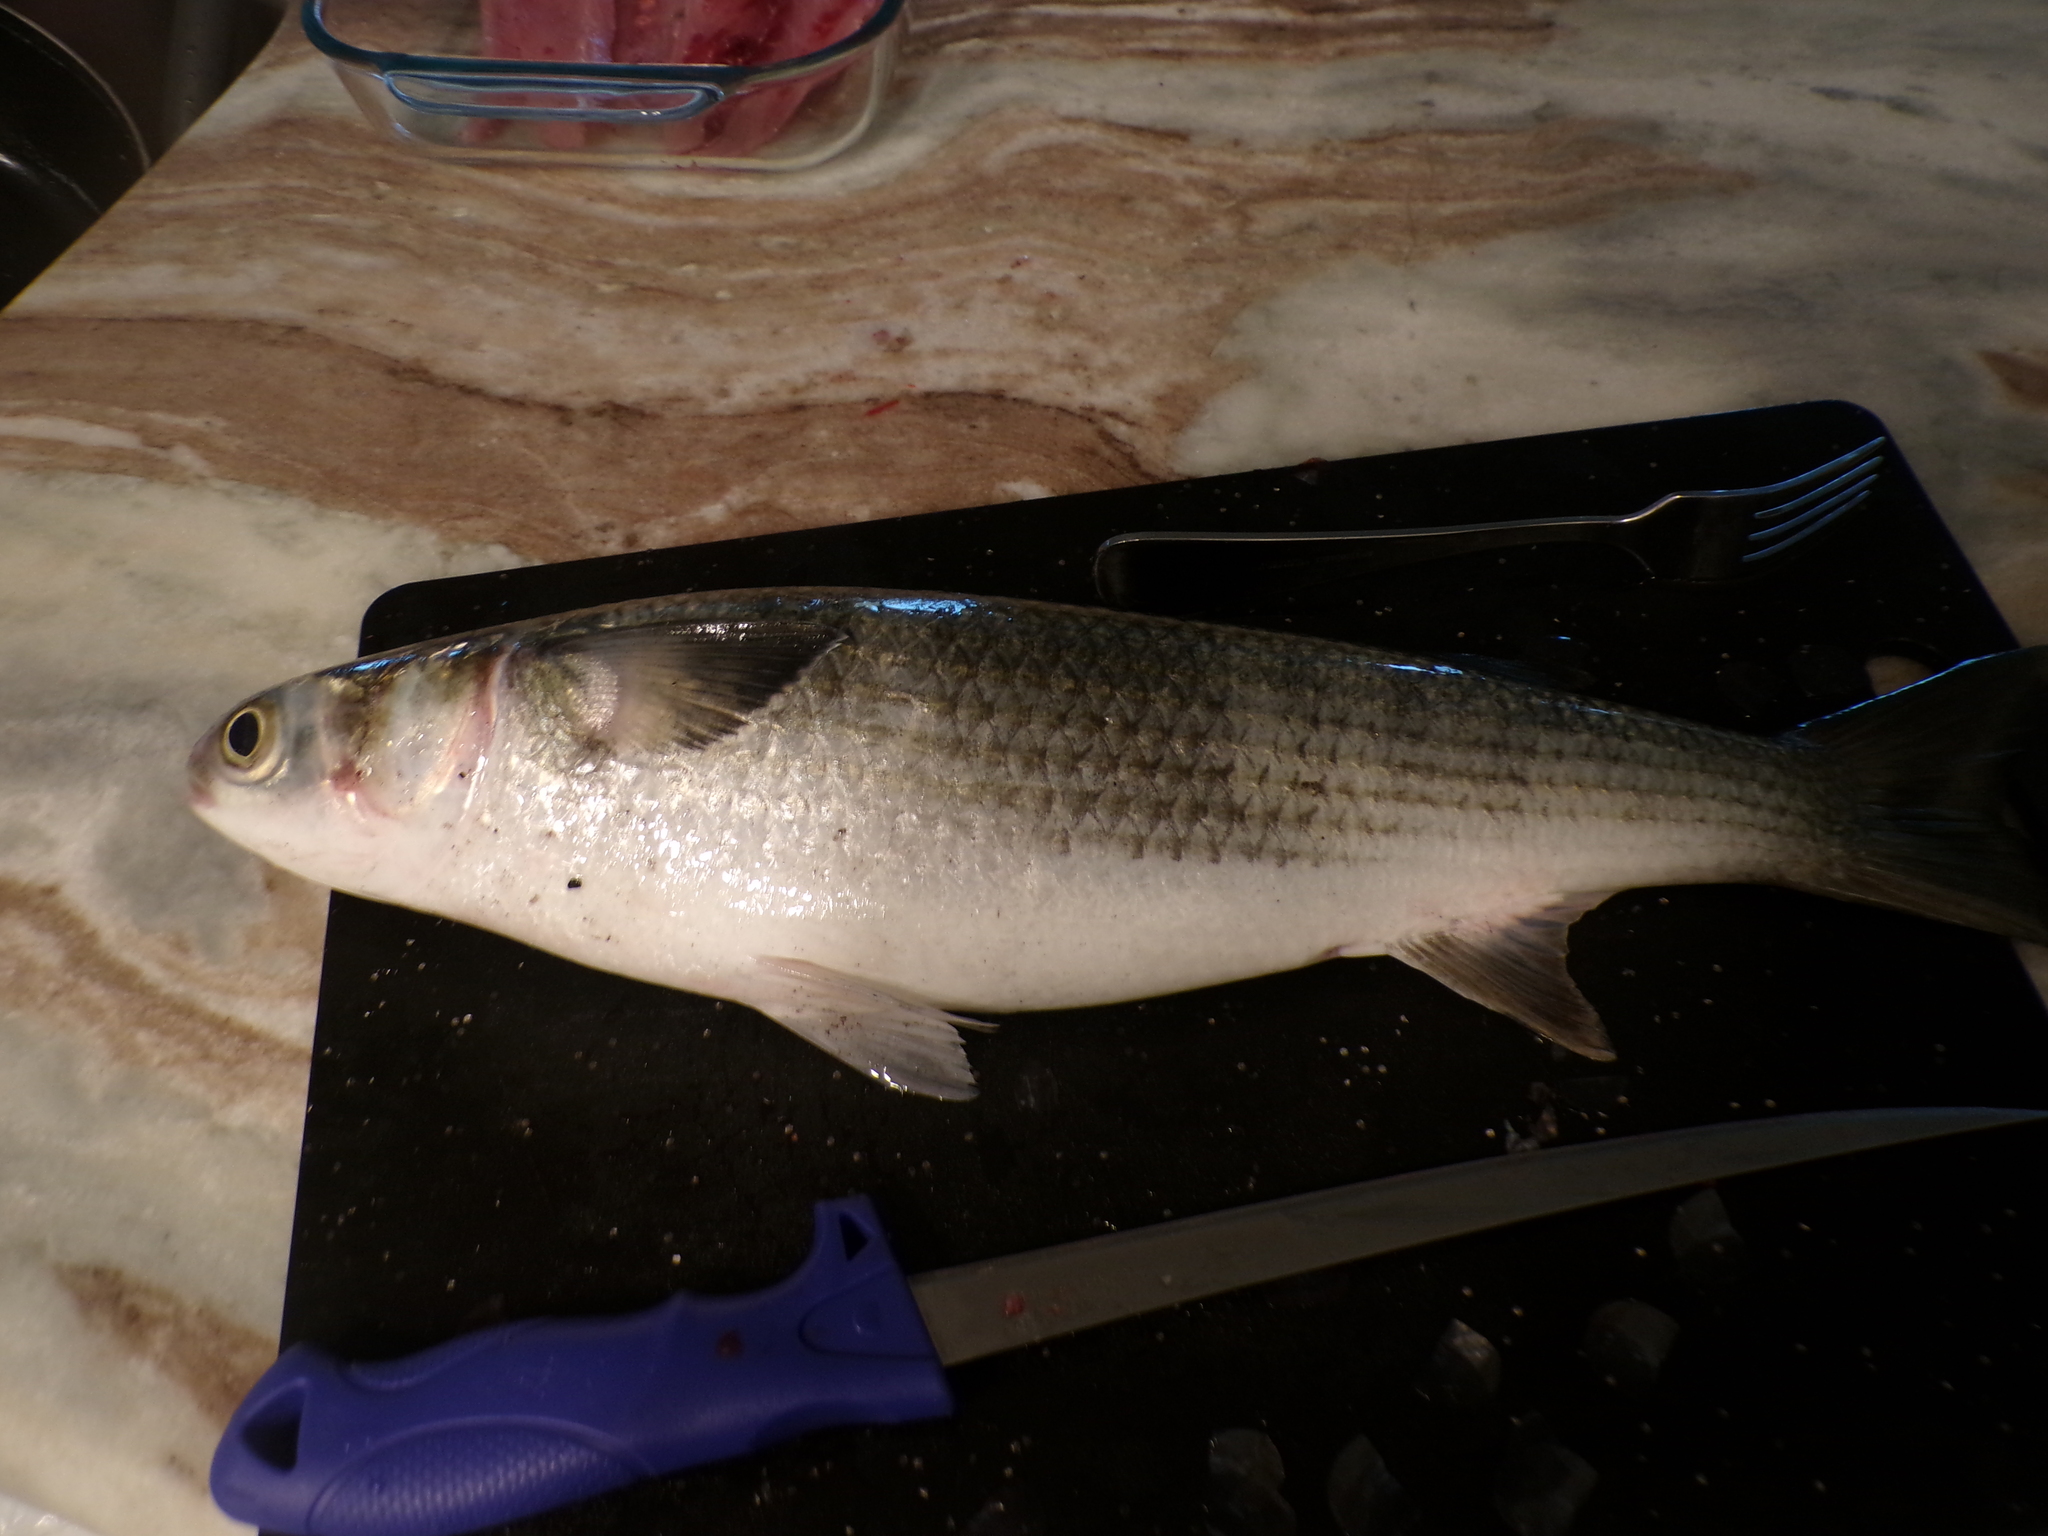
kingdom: Animalia
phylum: Chordata
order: Mugiliformes
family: Mugilidae
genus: Mugil
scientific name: Mugil cephalus
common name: Grey mullet
